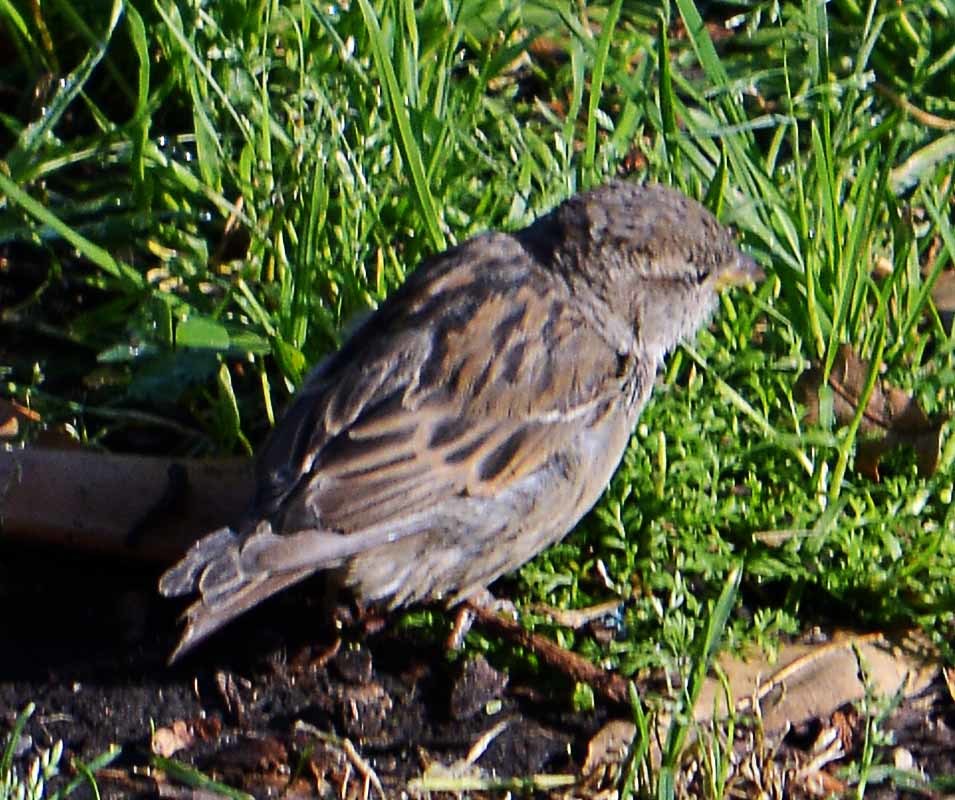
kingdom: Animalia
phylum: Chordata
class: Aves
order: Passeriformes
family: Passeridae
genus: Passer
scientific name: Passer domesticus
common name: House sparrow
